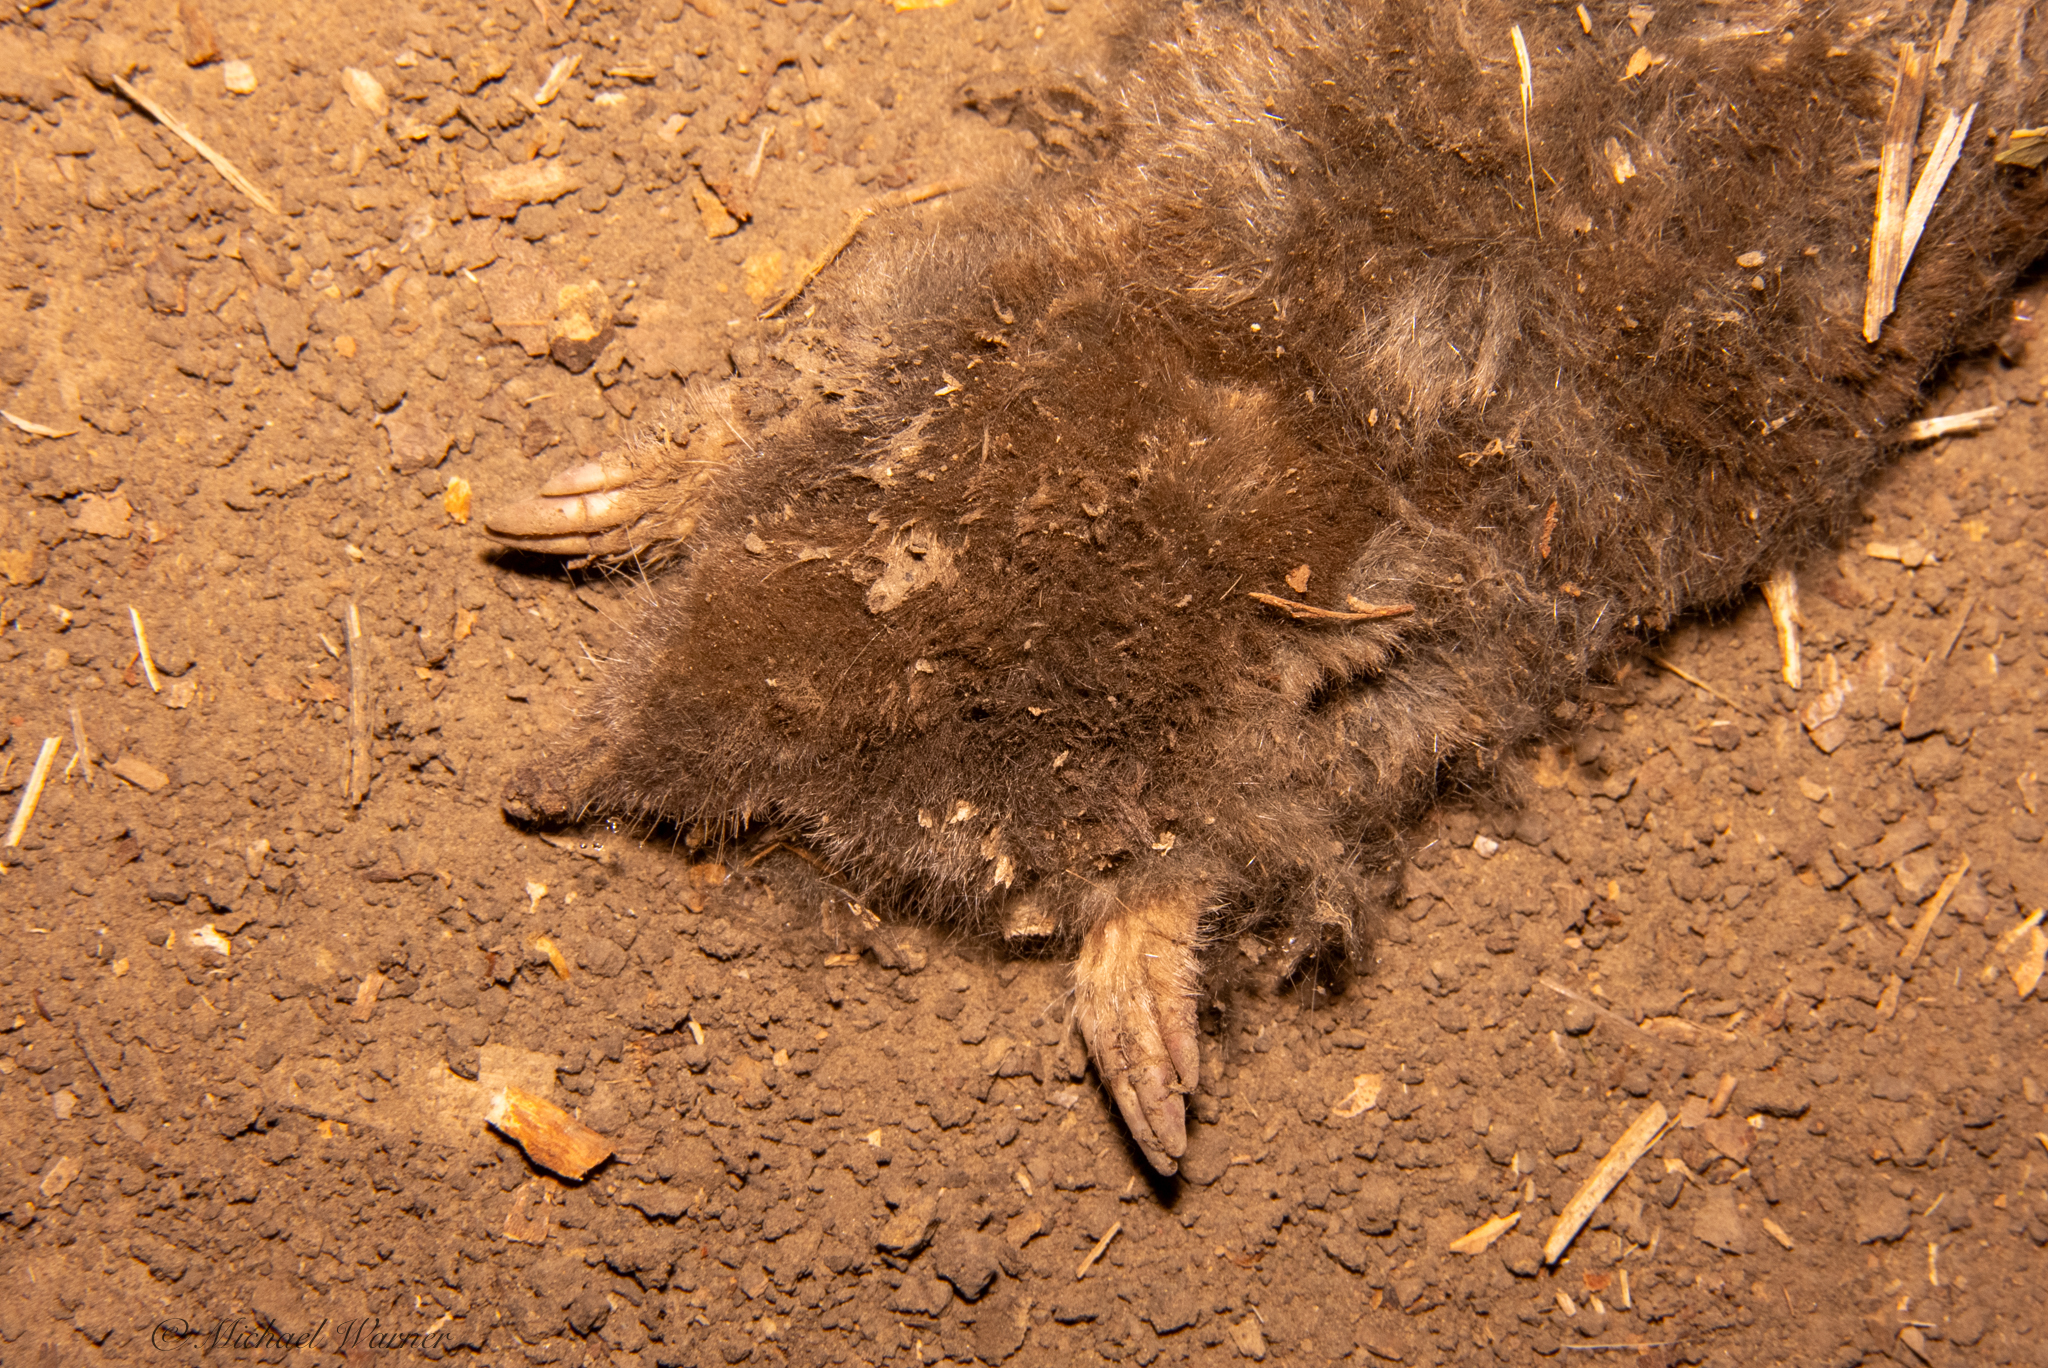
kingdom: Animalia
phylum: Chordata
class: Mammalia
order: Soricomorpha
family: Talpidae
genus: Scapanus
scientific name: Scapanus latimanus
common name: Broad-footed mole
